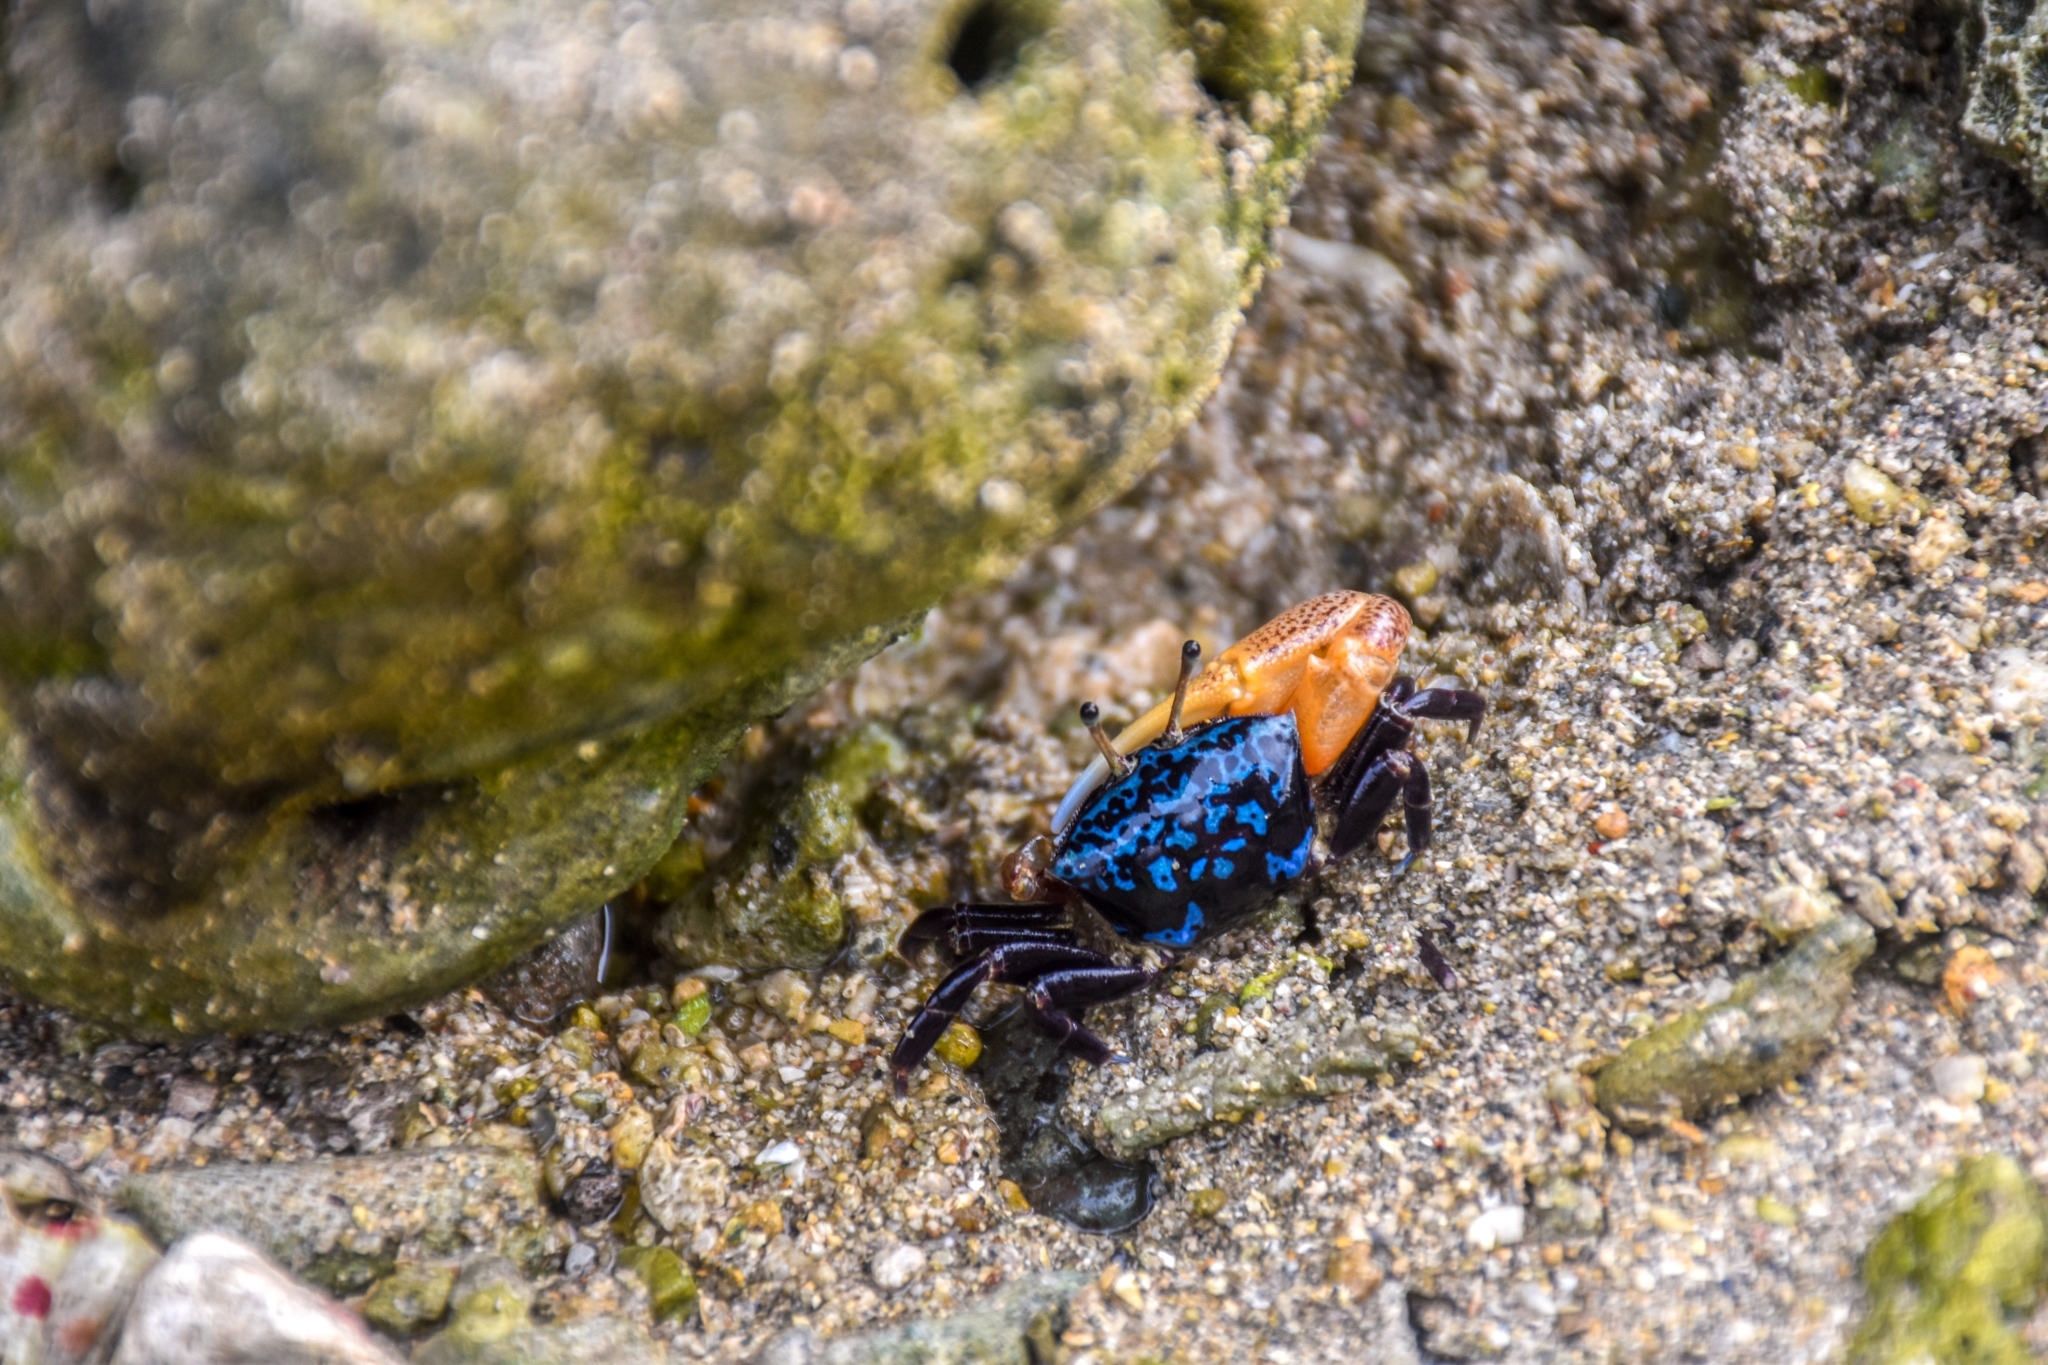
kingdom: Animalia
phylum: Arthropoda
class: Malacostraca
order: Decapoda
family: Ocypodidae
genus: Gelasimus
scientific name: Gelasimus tetragonon
